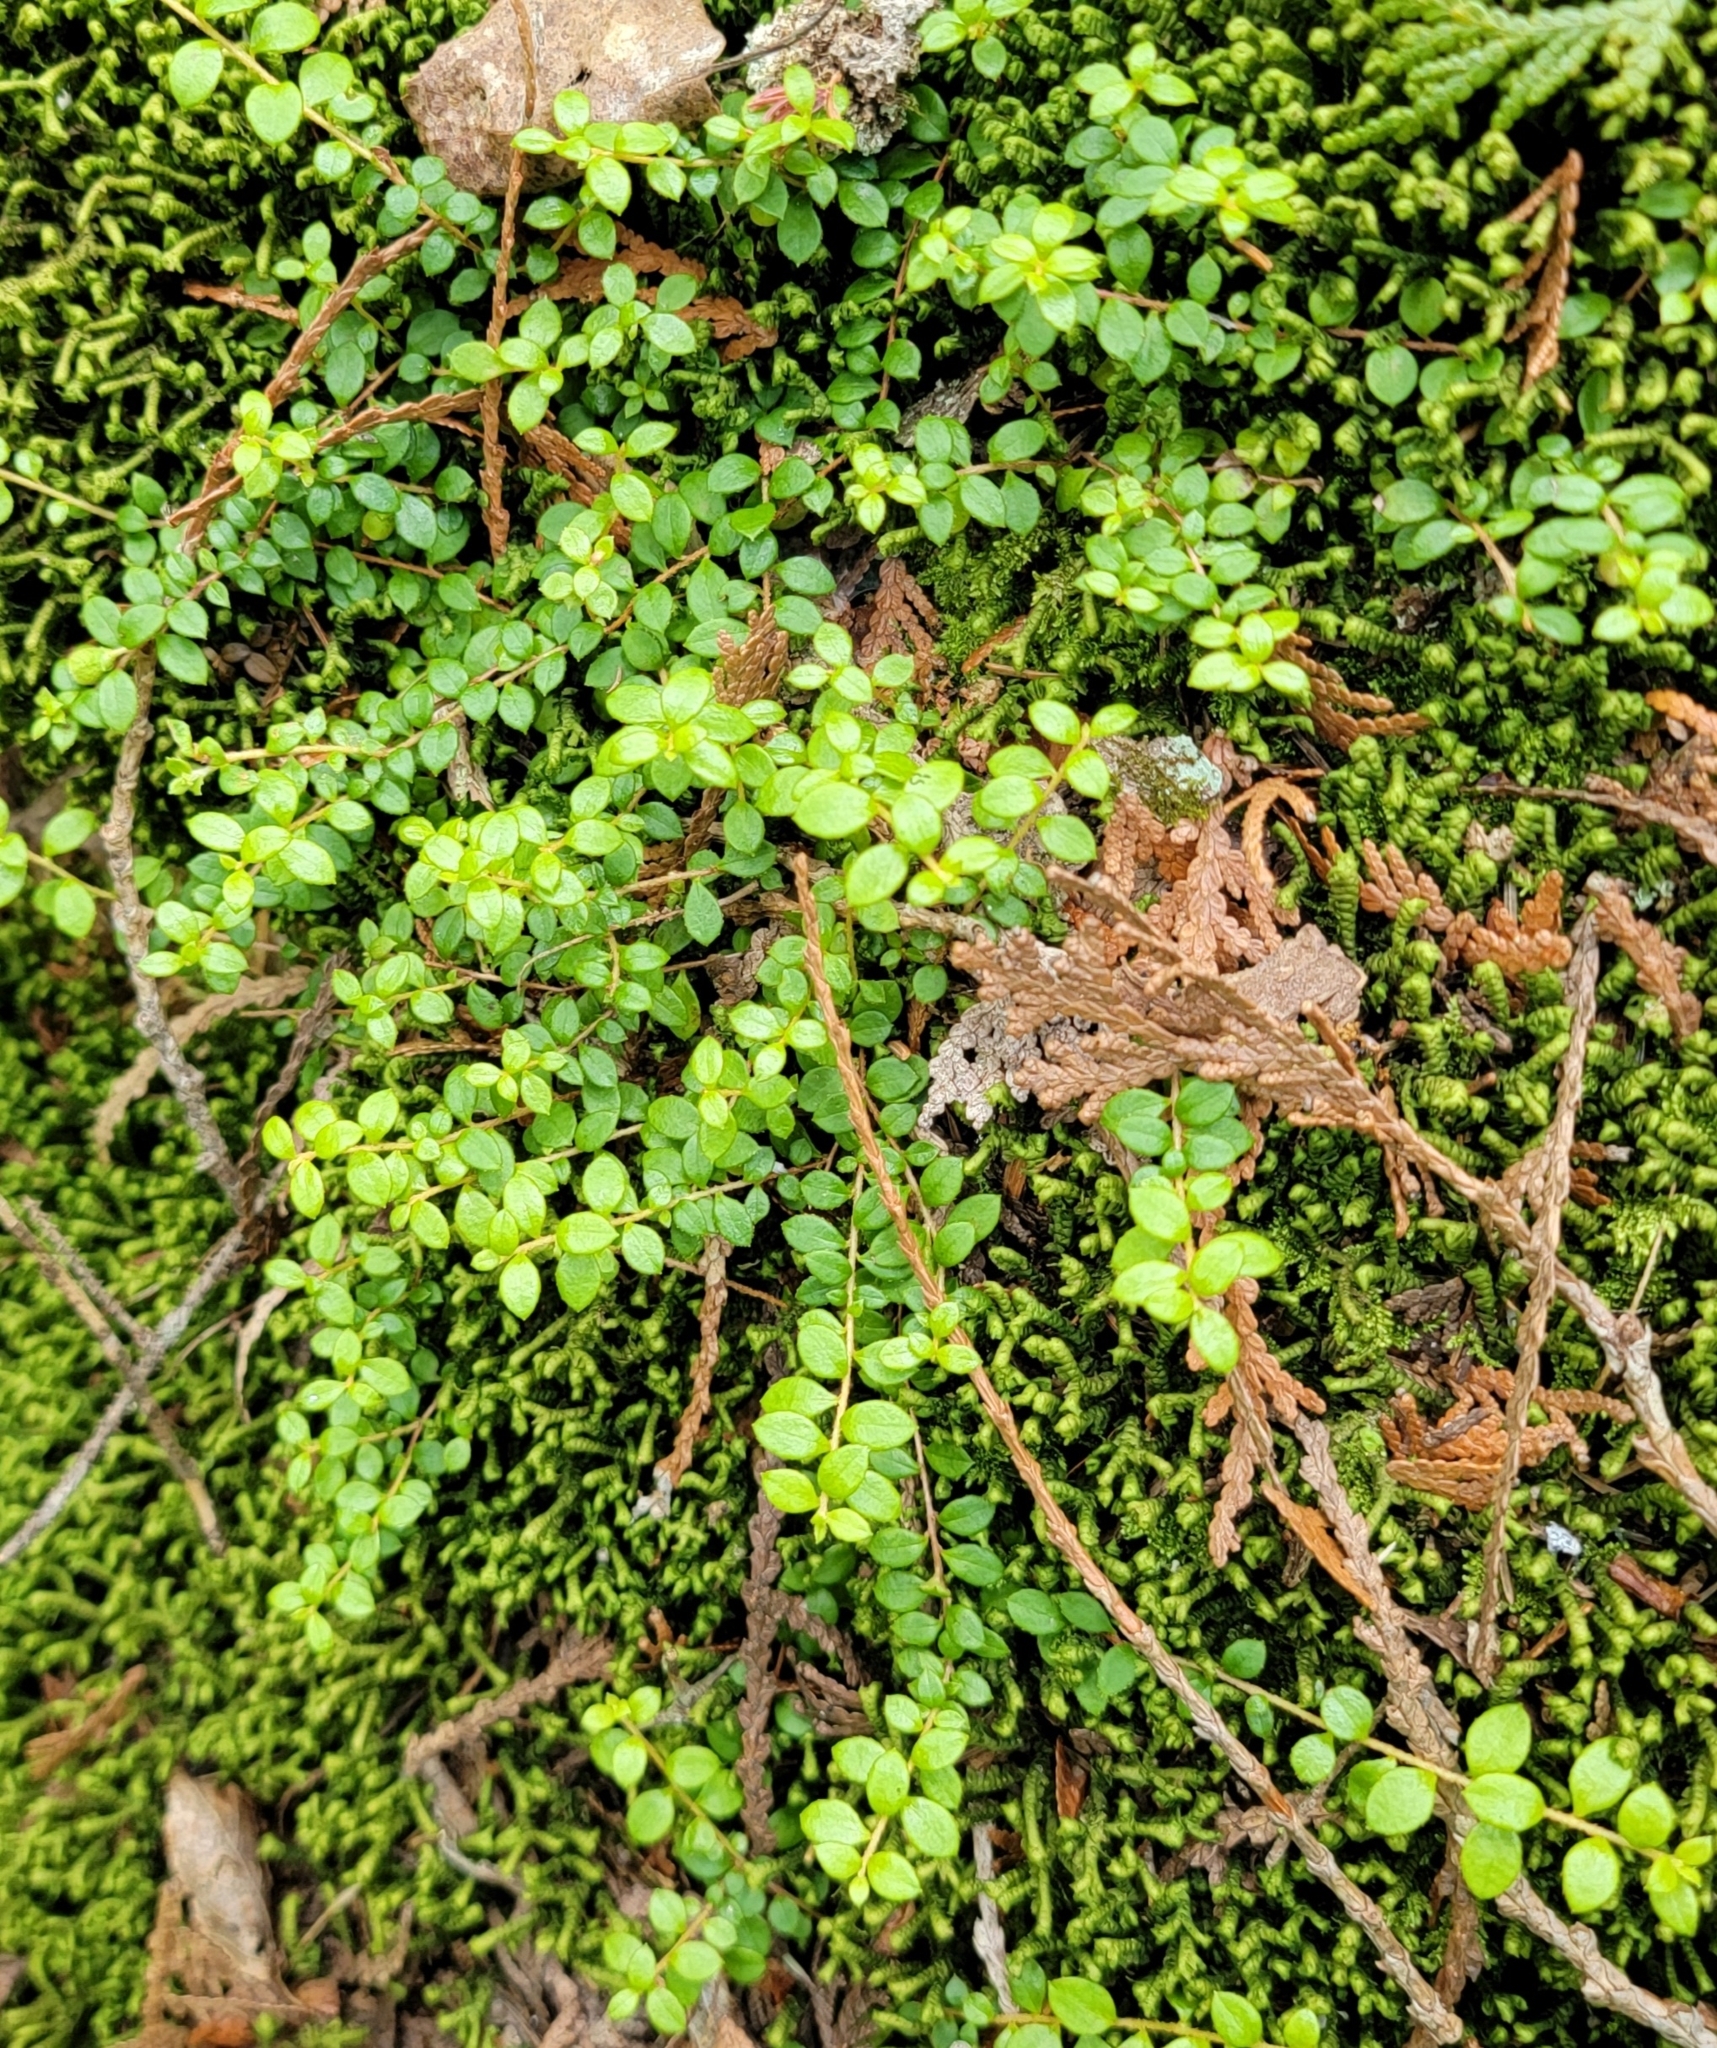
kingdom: Plantae
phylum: Tracheophyta
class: Magnoliopsida
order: Ericales
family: Ericaceae
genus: Gaultheria
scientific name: Gaultheria hispidula
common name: Cancer wintergreen
